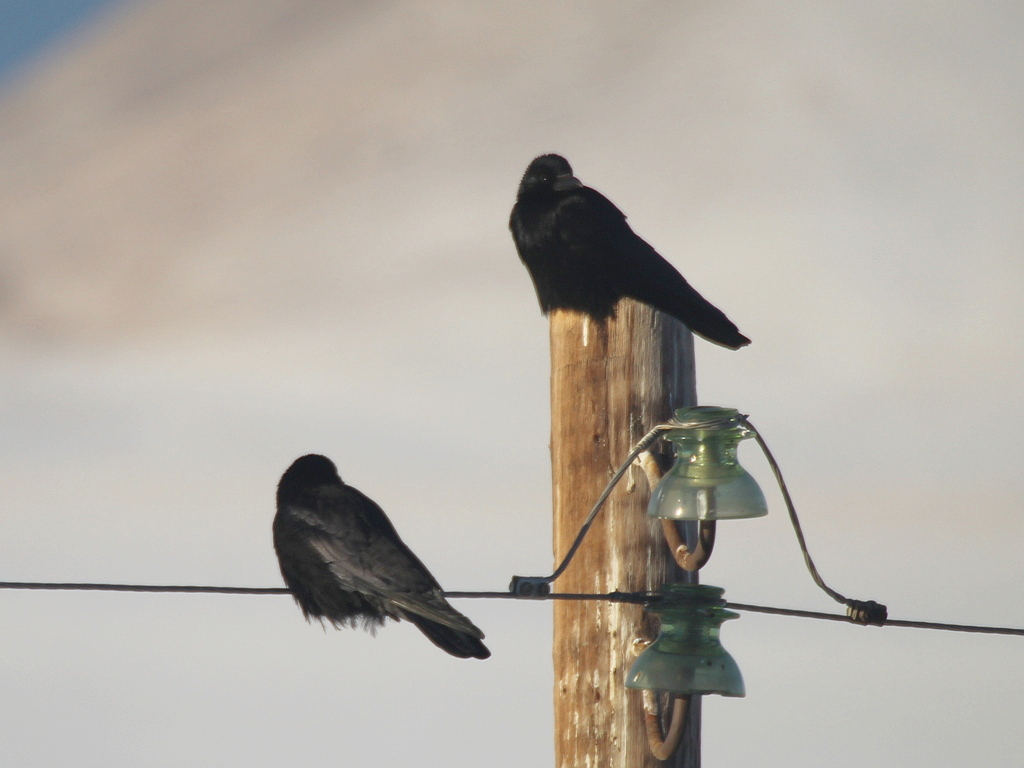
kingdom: Animalia
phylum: Chordata
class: Aves
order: Passeriformes
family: Corvidae
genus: Corvus
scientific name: Corvus corone
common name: Carrion crow
